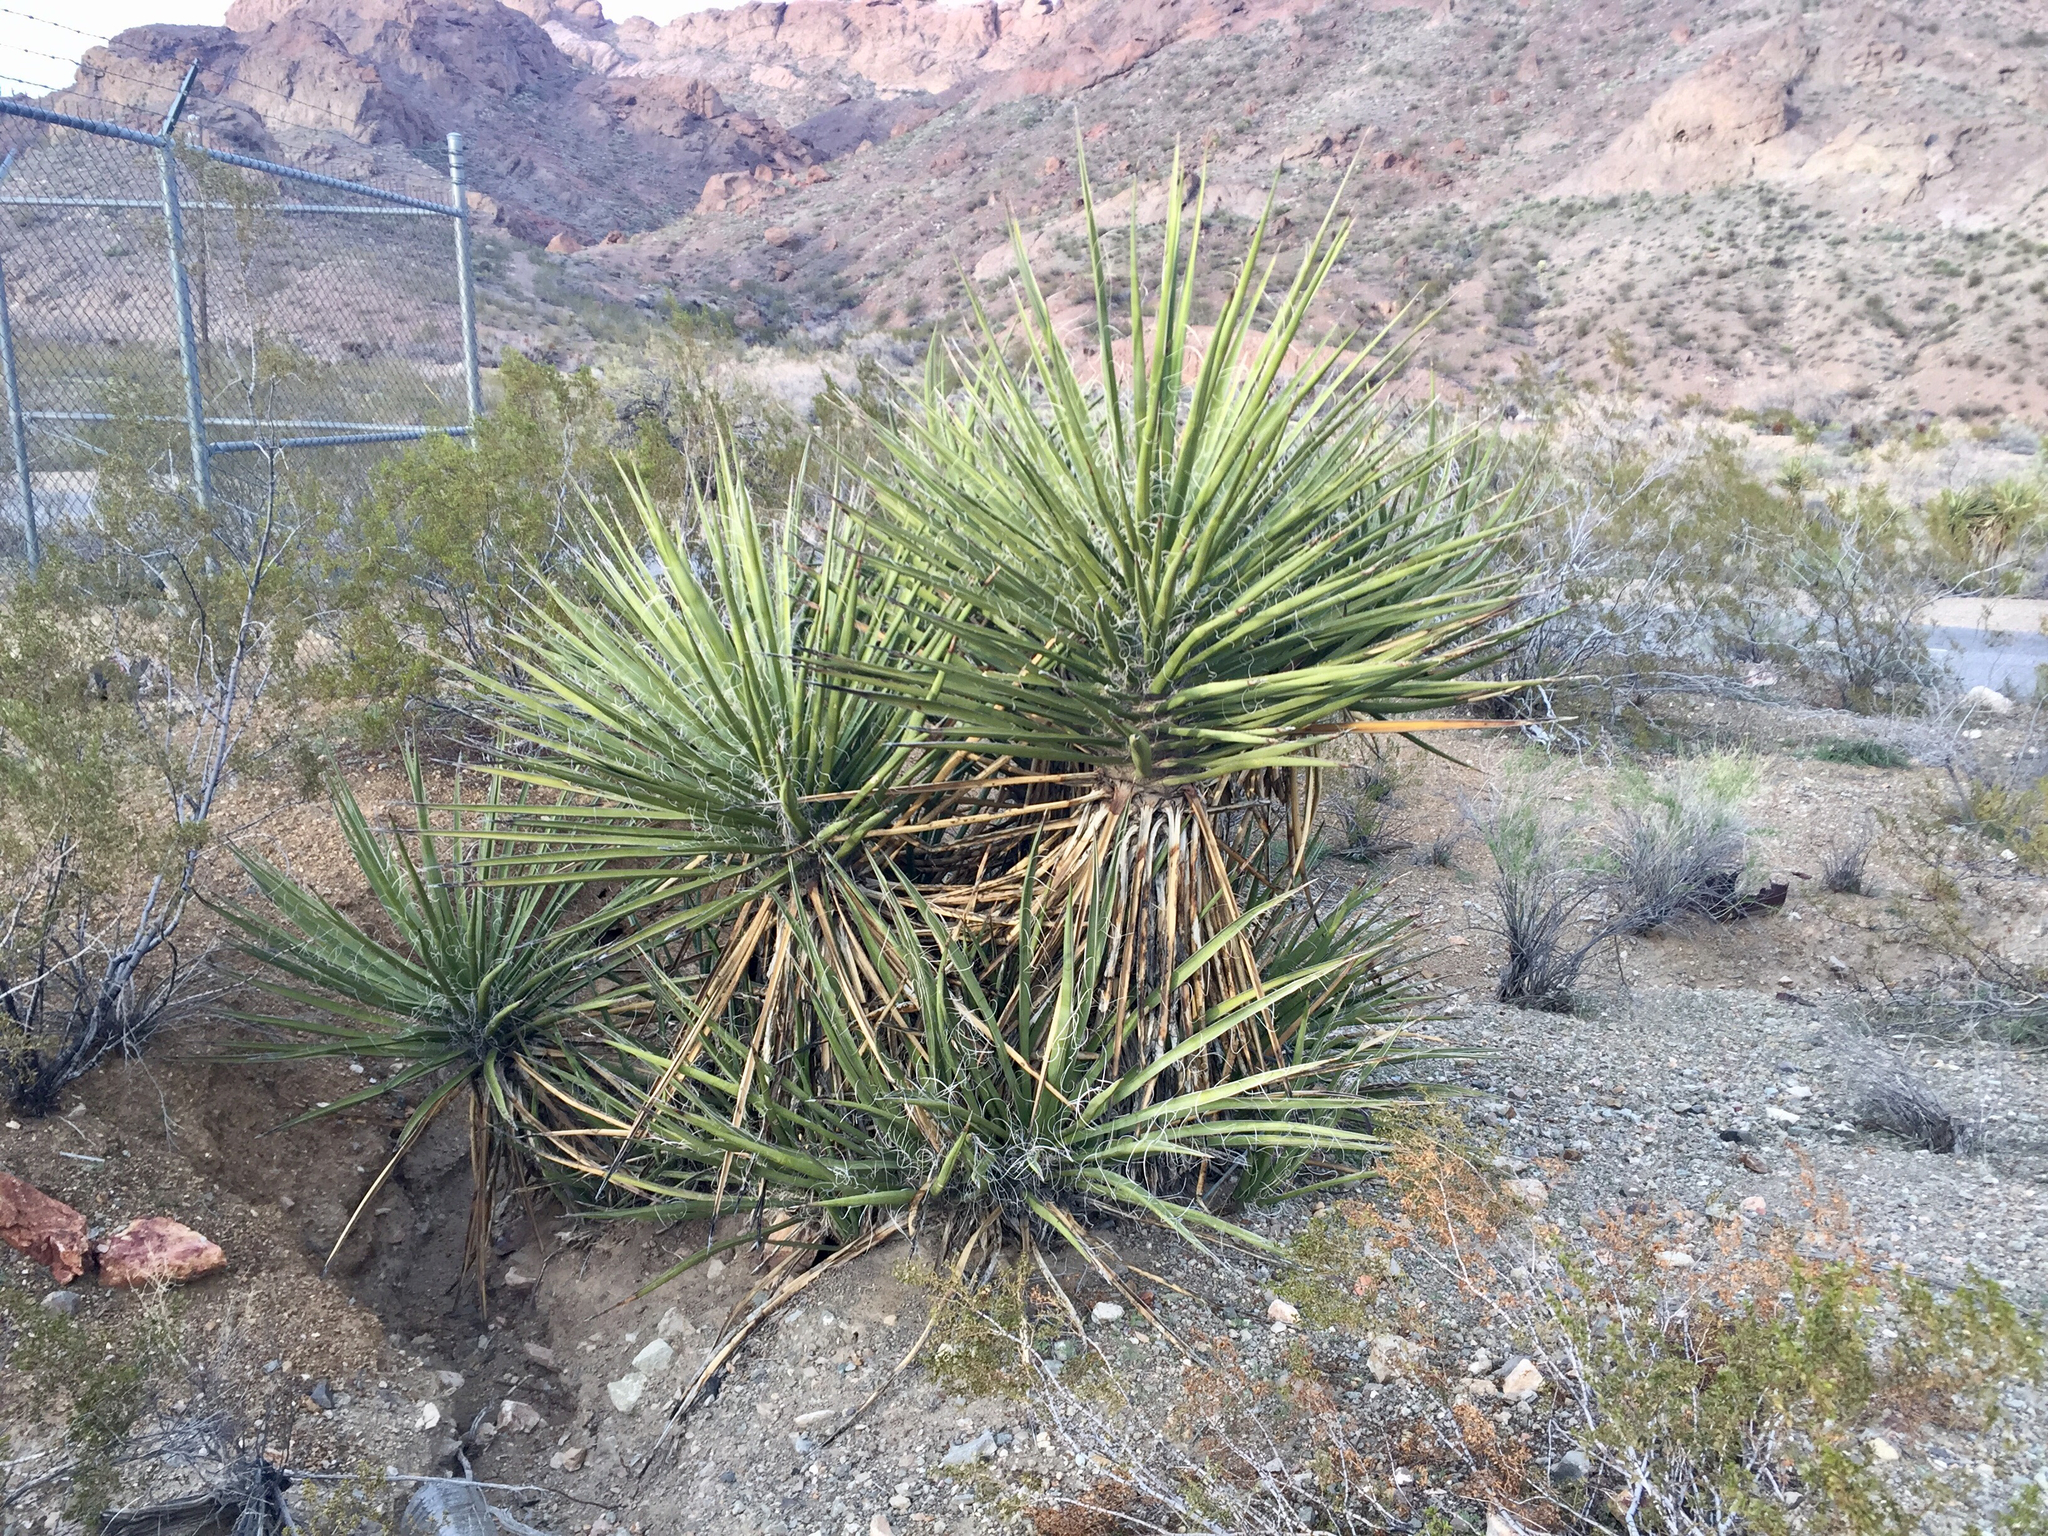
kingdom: Plantae
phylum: Tracheophyta
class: Liliopsida
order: Asparagales
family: Asparagaceae
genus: Yucca
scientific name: Yucca schidigera
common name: Mojave yucca
